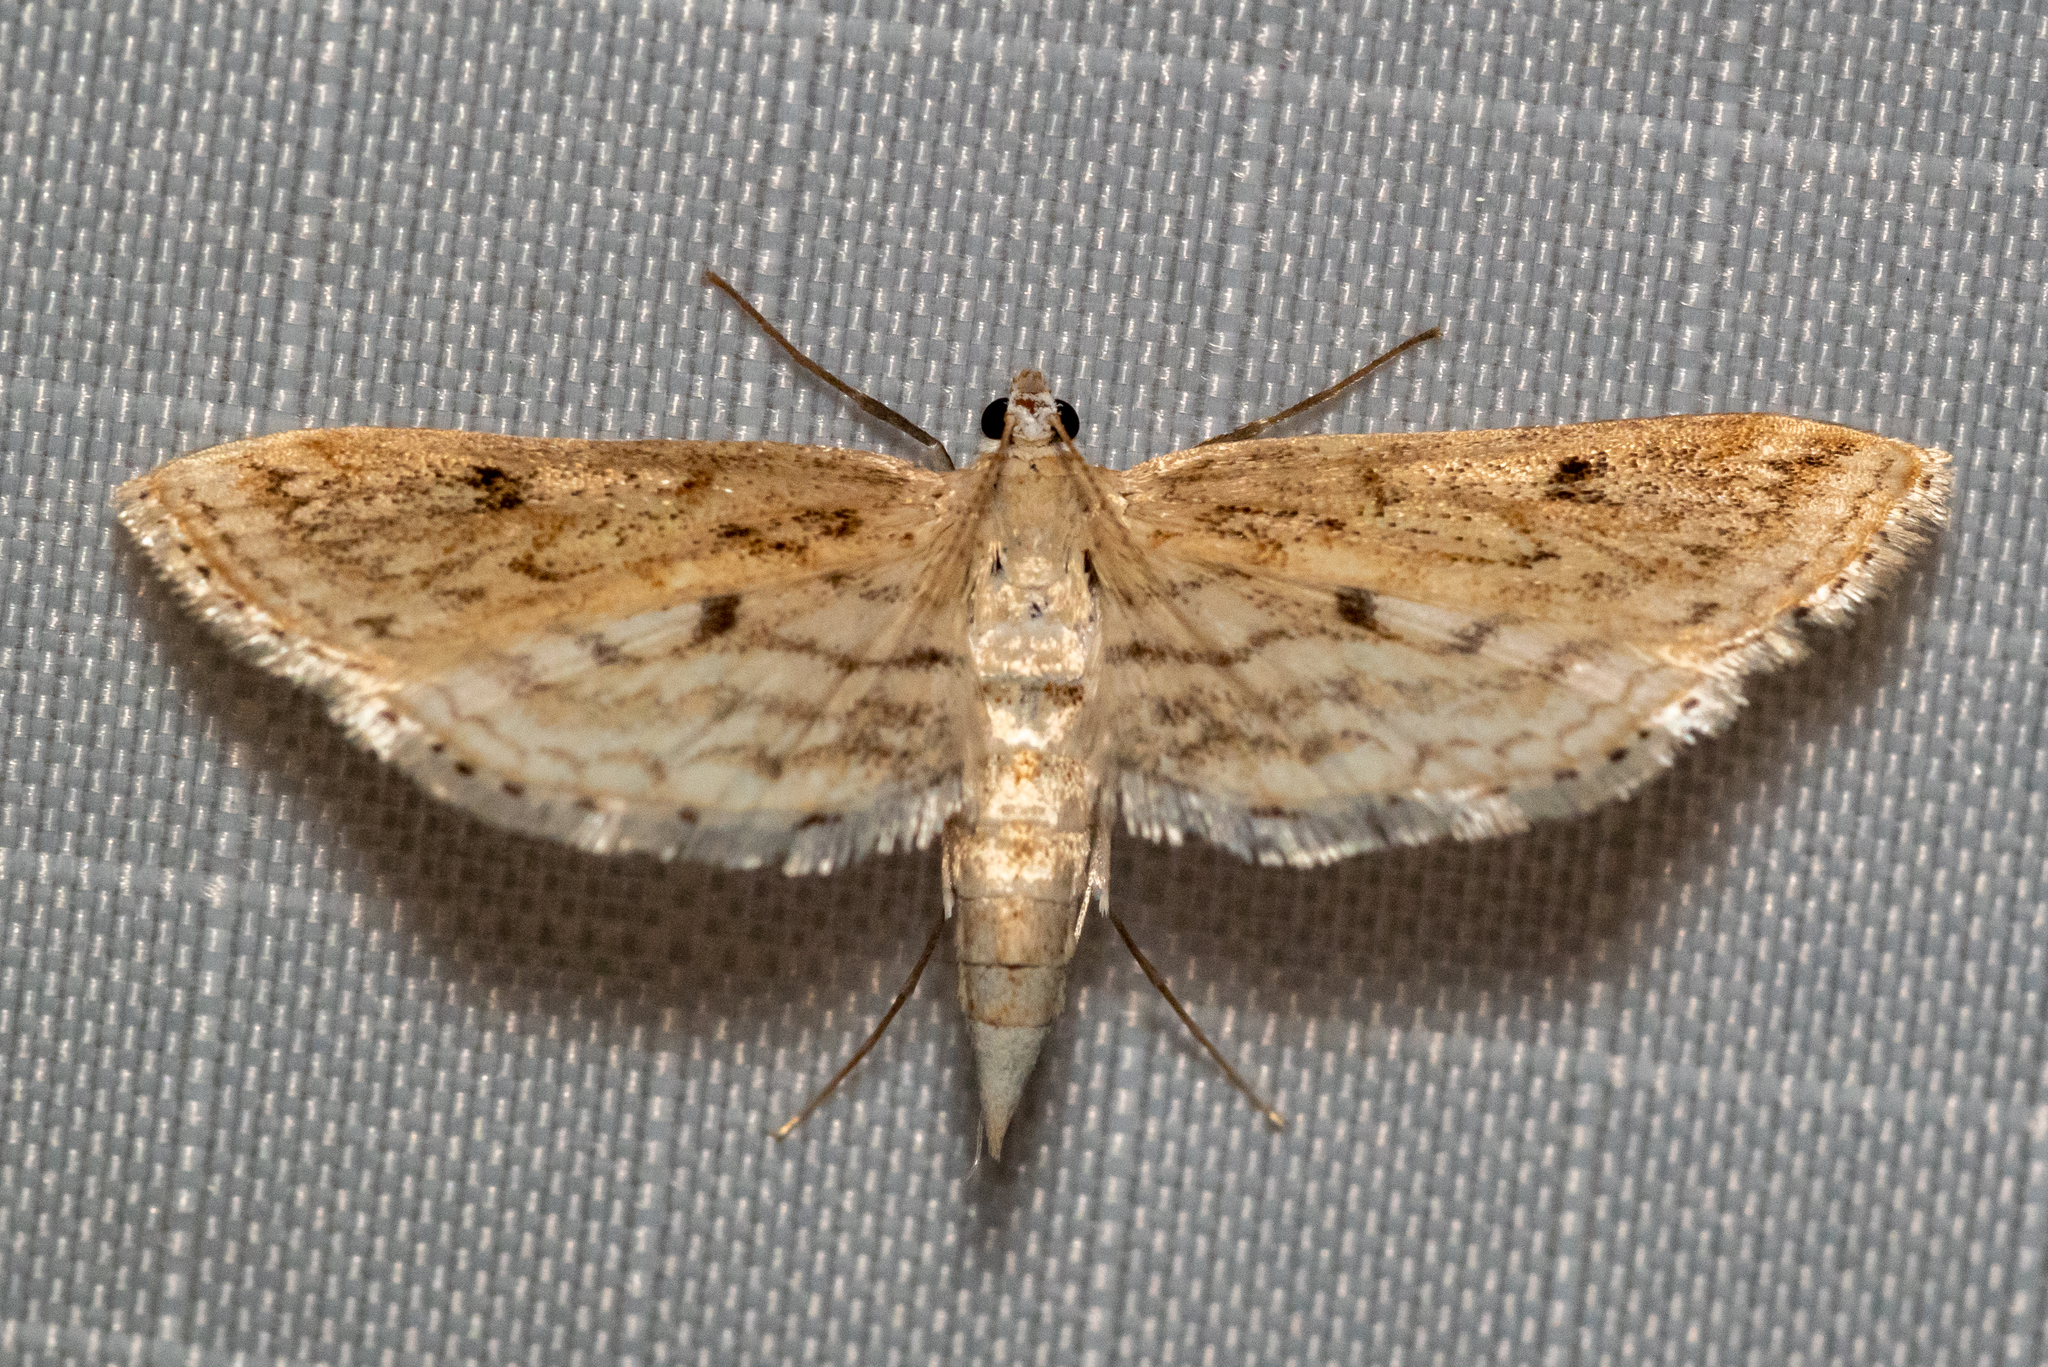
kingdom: Animalia
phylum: Arthropoda
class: Insecta
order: Lepidoptera
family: Crambidae
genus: Parapoynx
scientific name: Parapoynx allionealis
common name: Bladderwort casemaker
